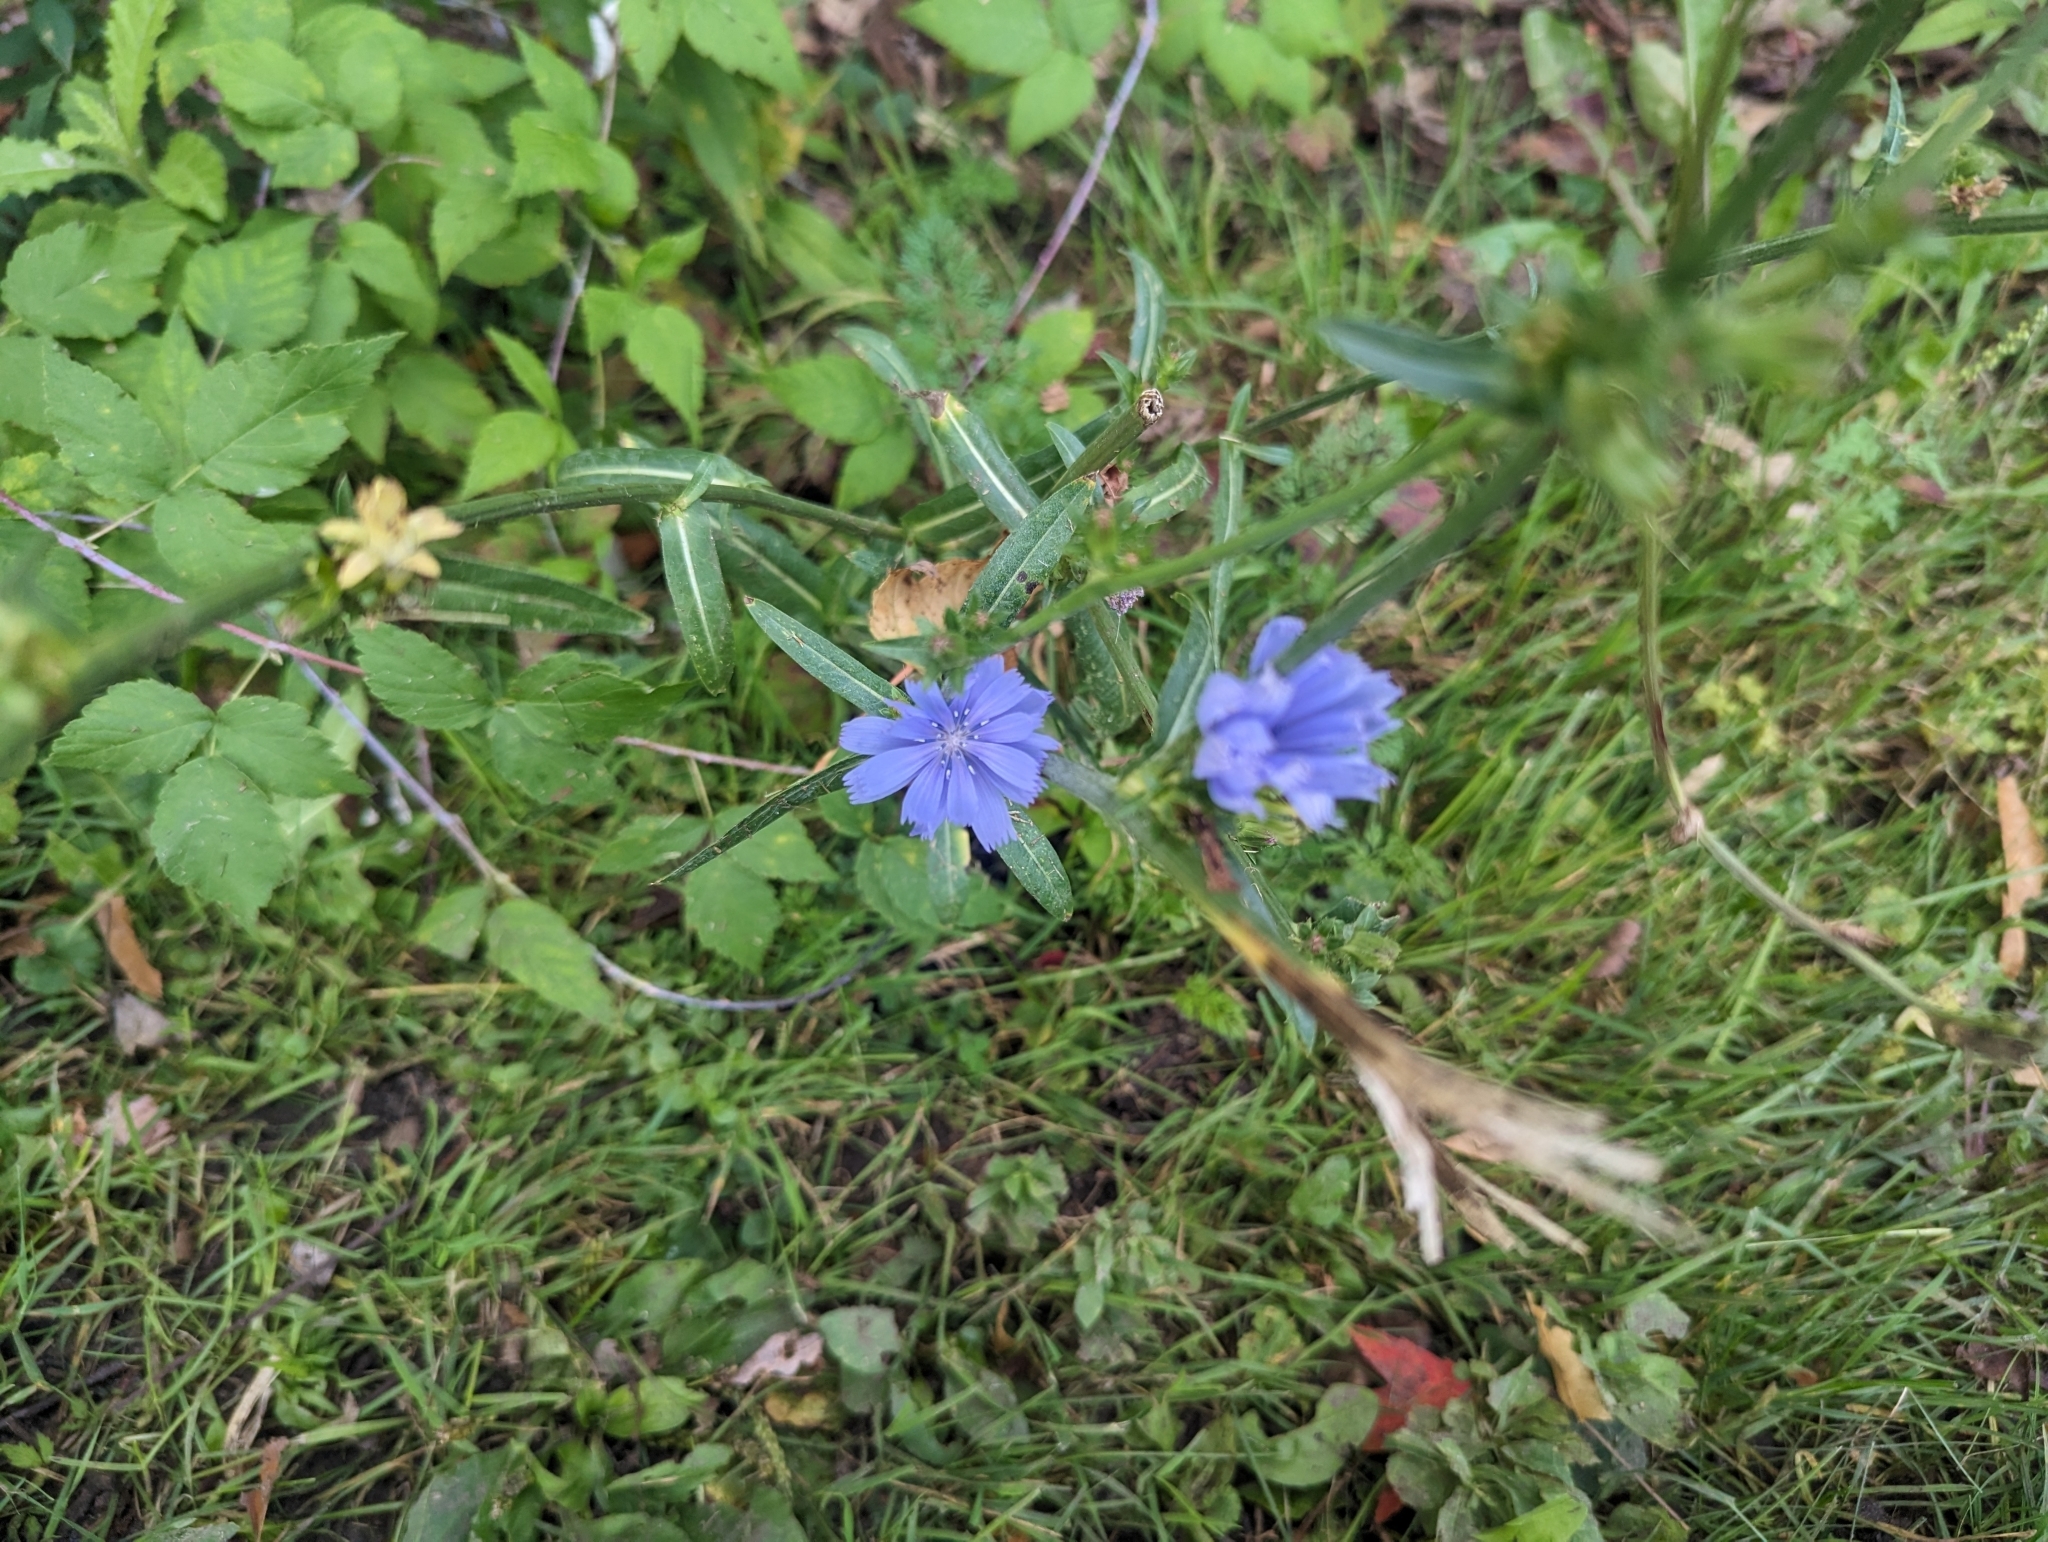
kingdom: Plantae
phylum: Tracheophyta
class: Magnoliopsida
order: Asterales
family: Asteraceae
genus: Cichorium
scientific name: Cichorium intybus
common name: Chicory
